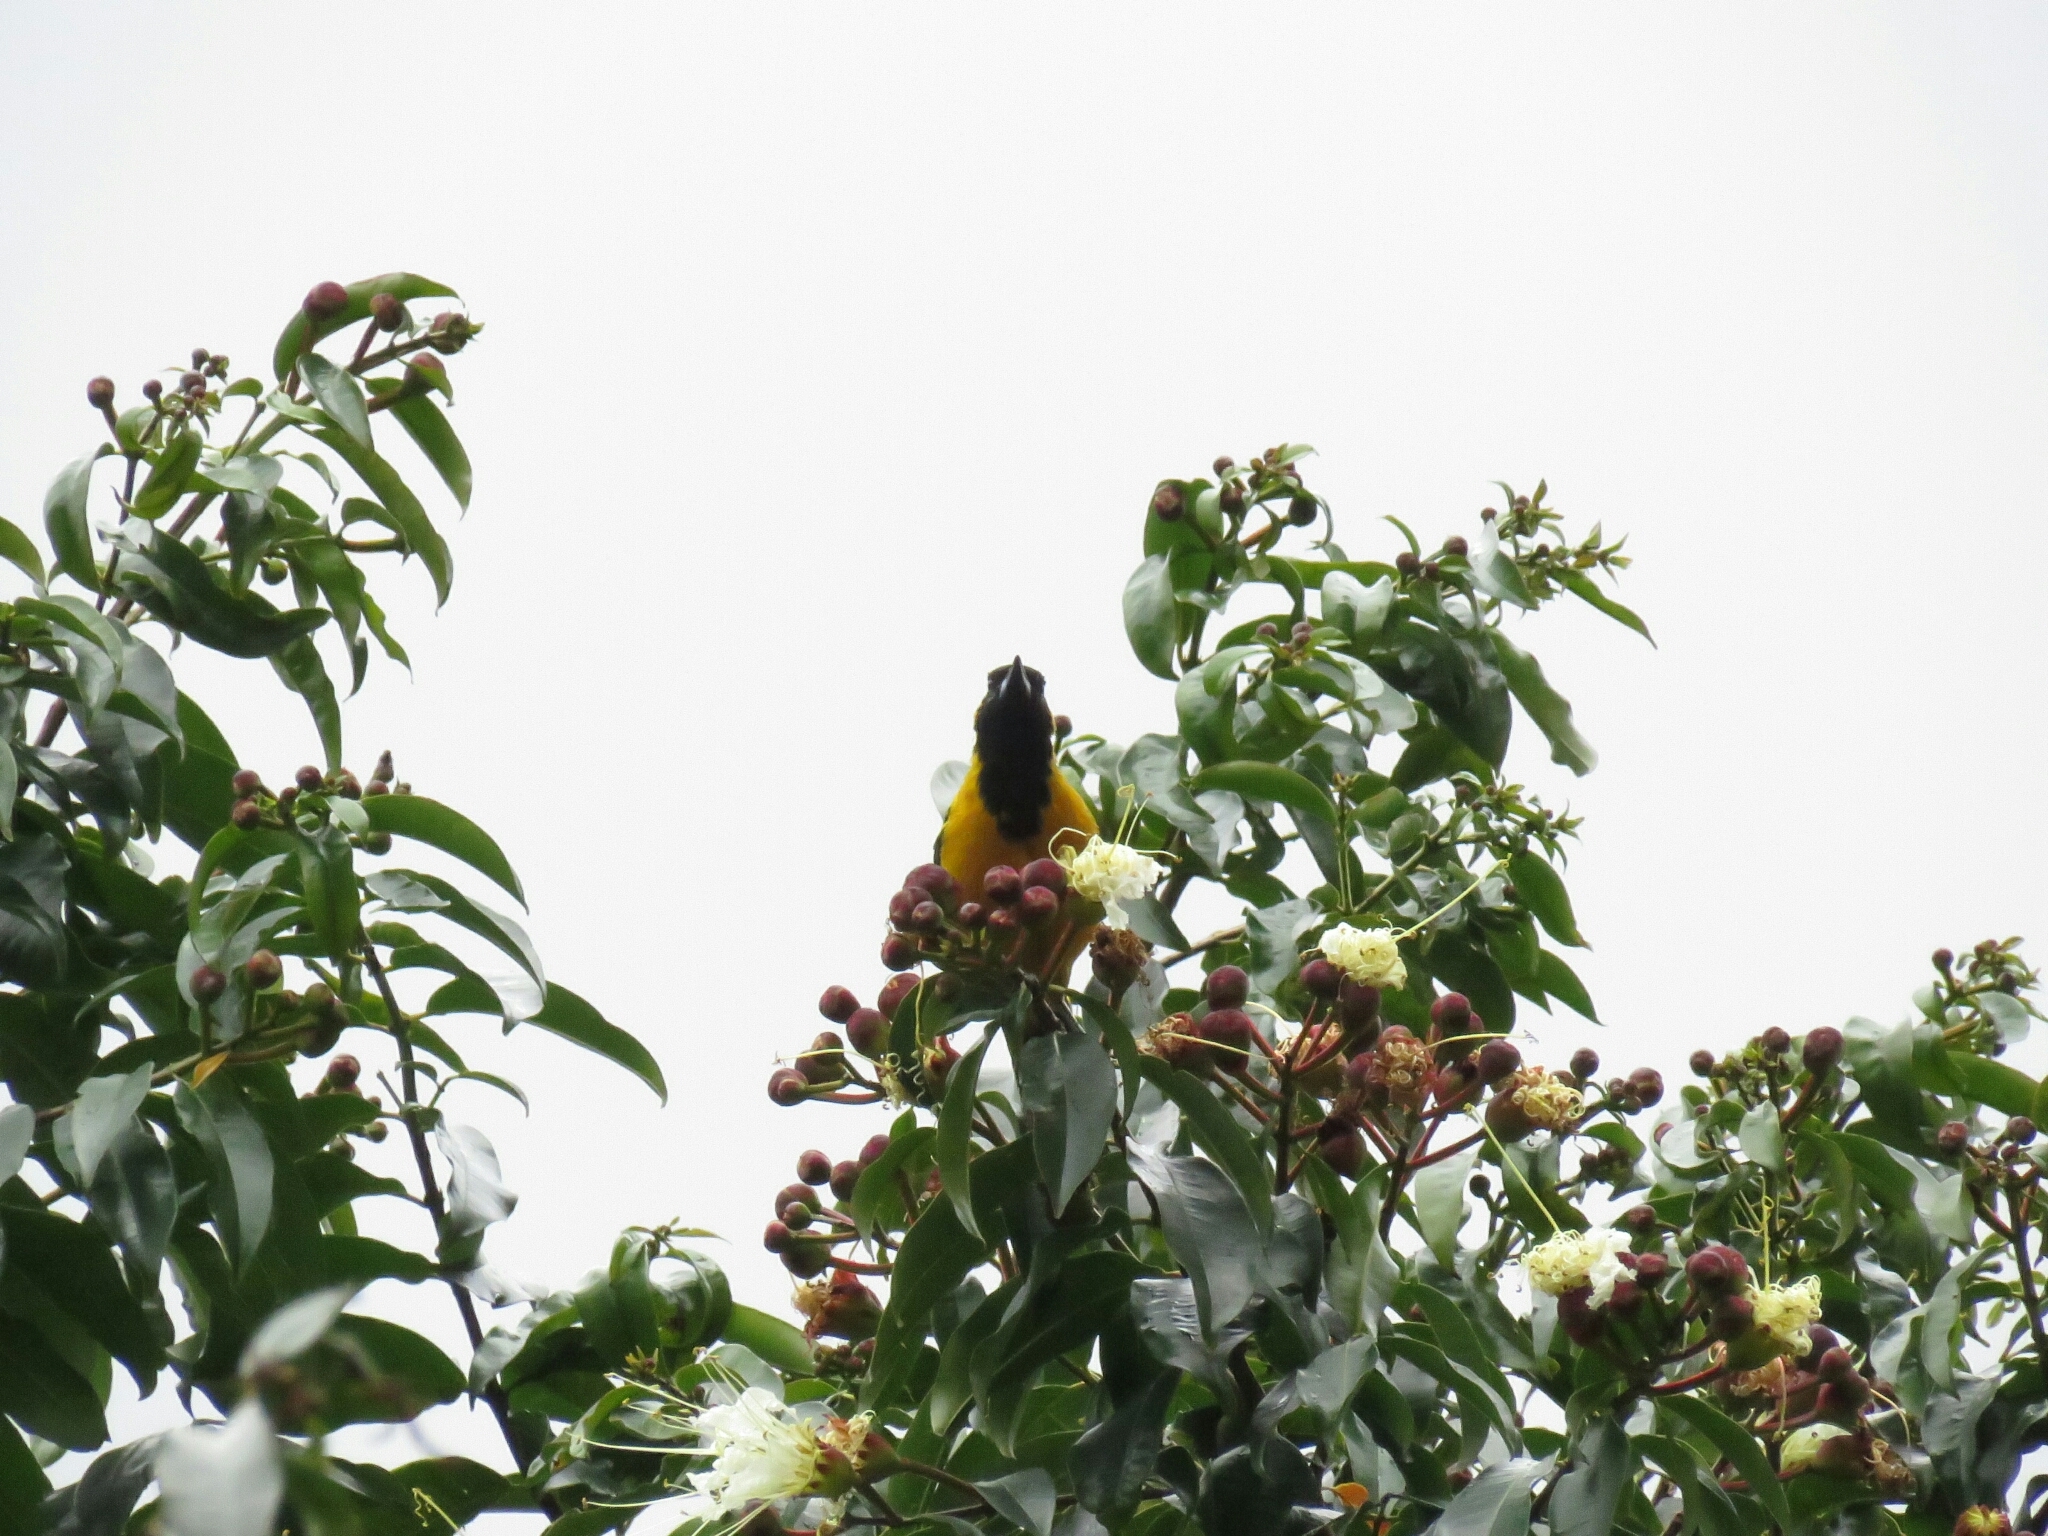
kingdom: Animalia
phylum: Chordata
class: Aves
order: Passeriformes
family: Icteridae
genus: Icterus
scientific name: Icterus chrysater
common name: Yellow-backed oriole
